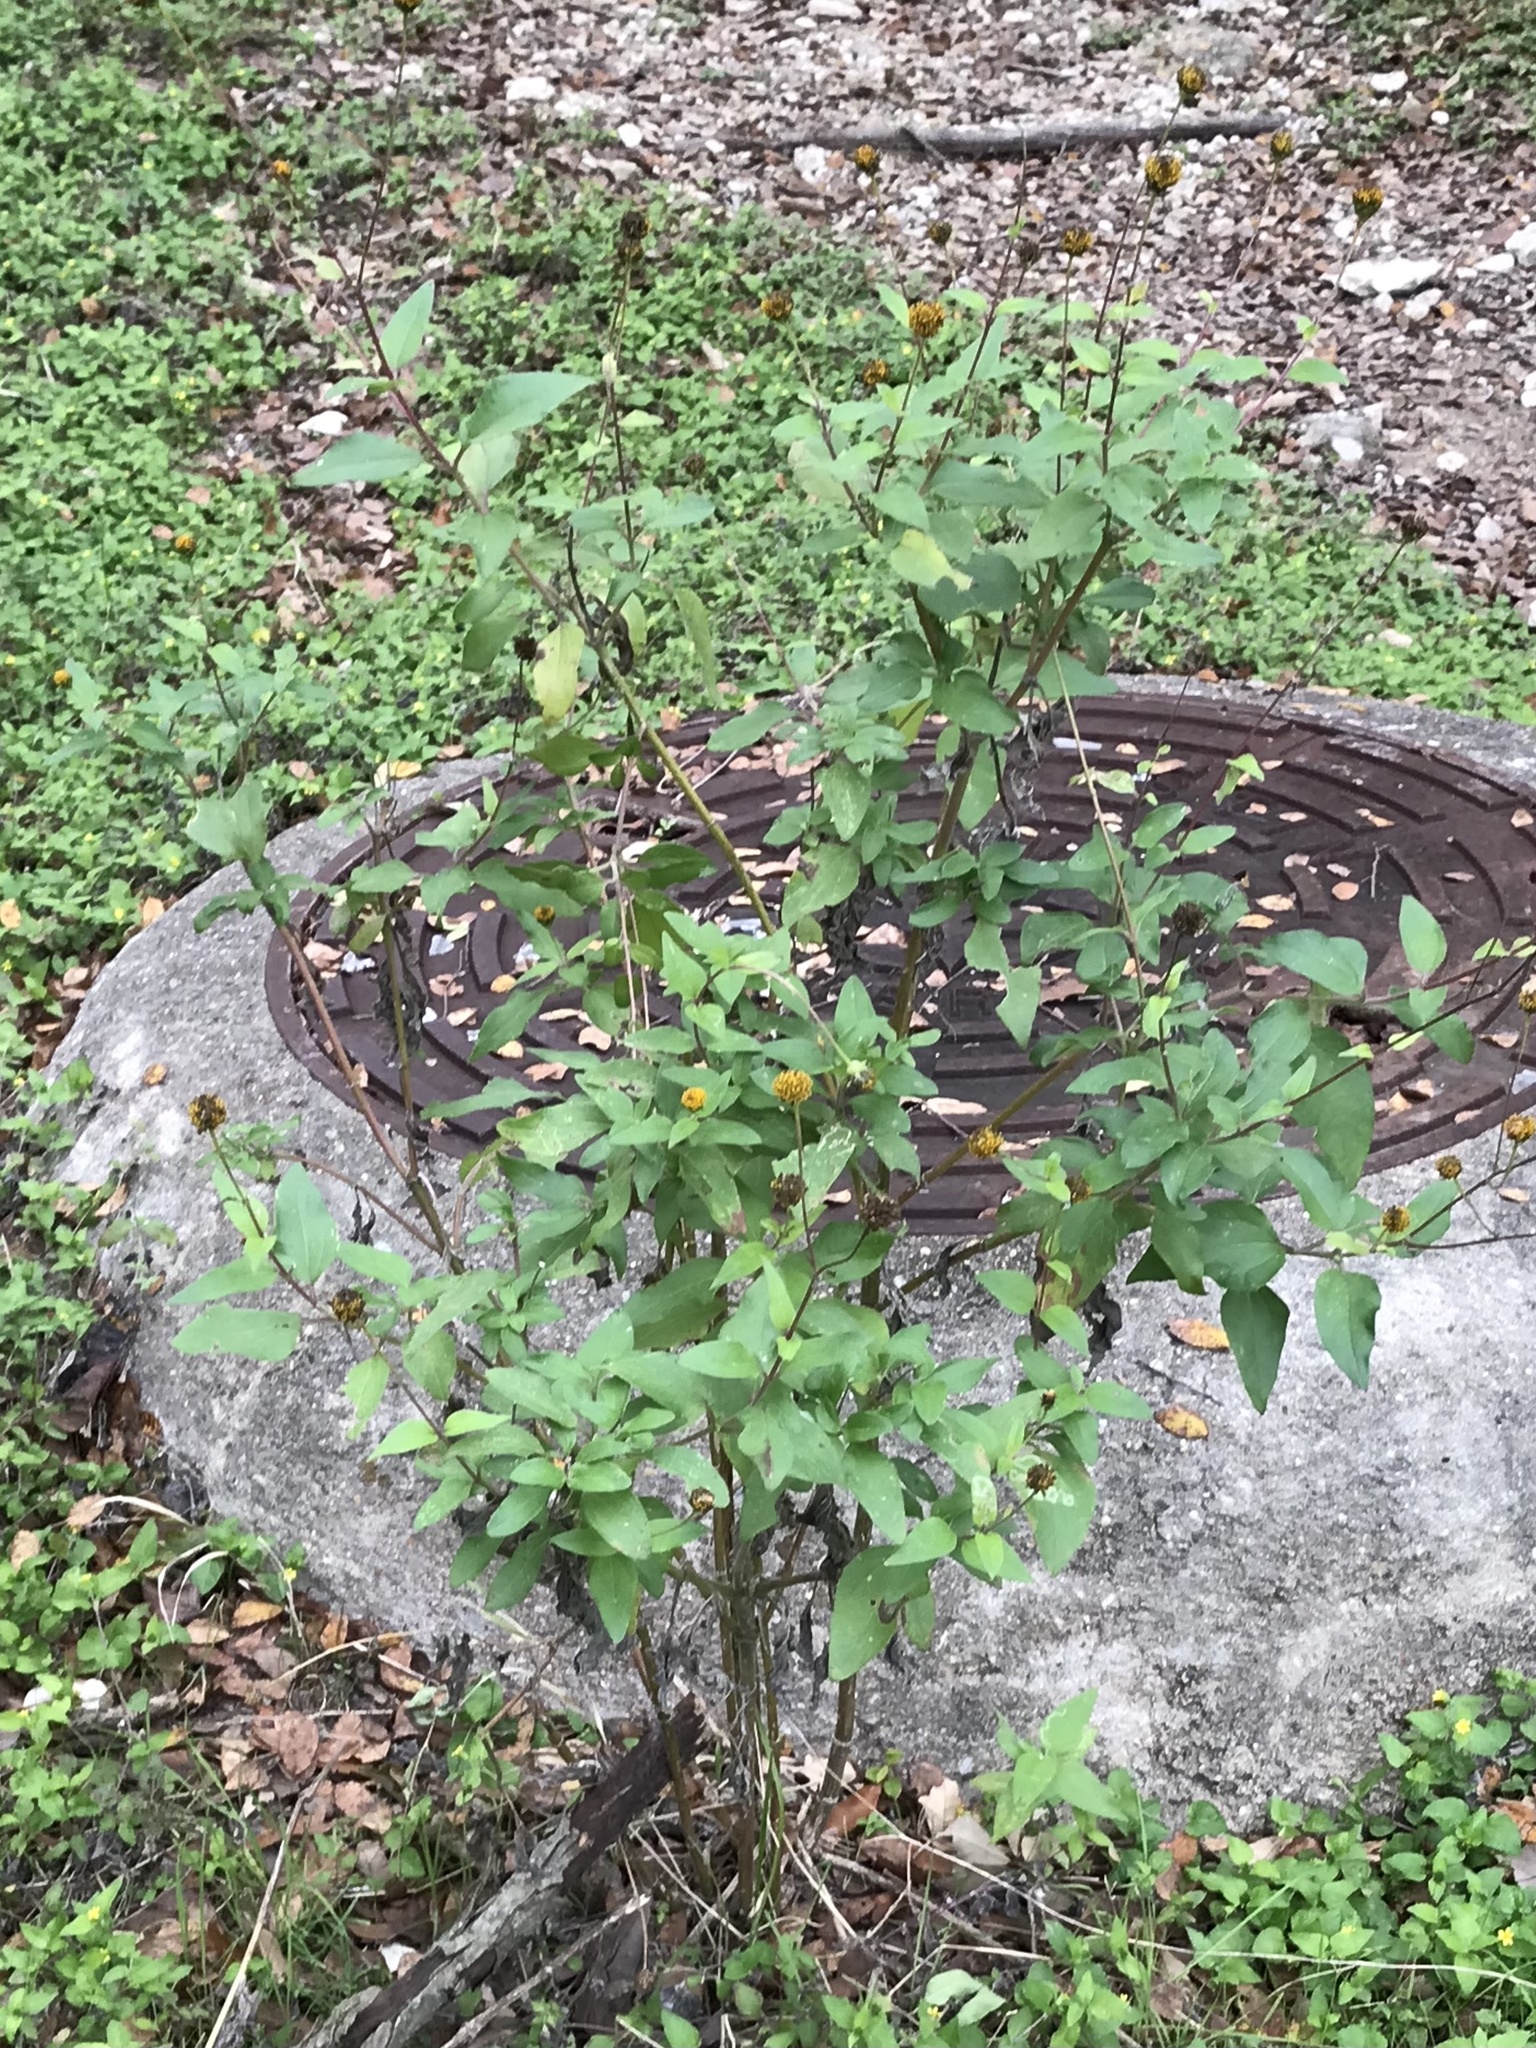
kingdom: Plantae
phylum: Tracheophyta
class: Magnoliopsida
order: Asterales
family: Asteraceae
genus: Viguiera
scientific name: Viguiera dentata
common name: Toothleaf
